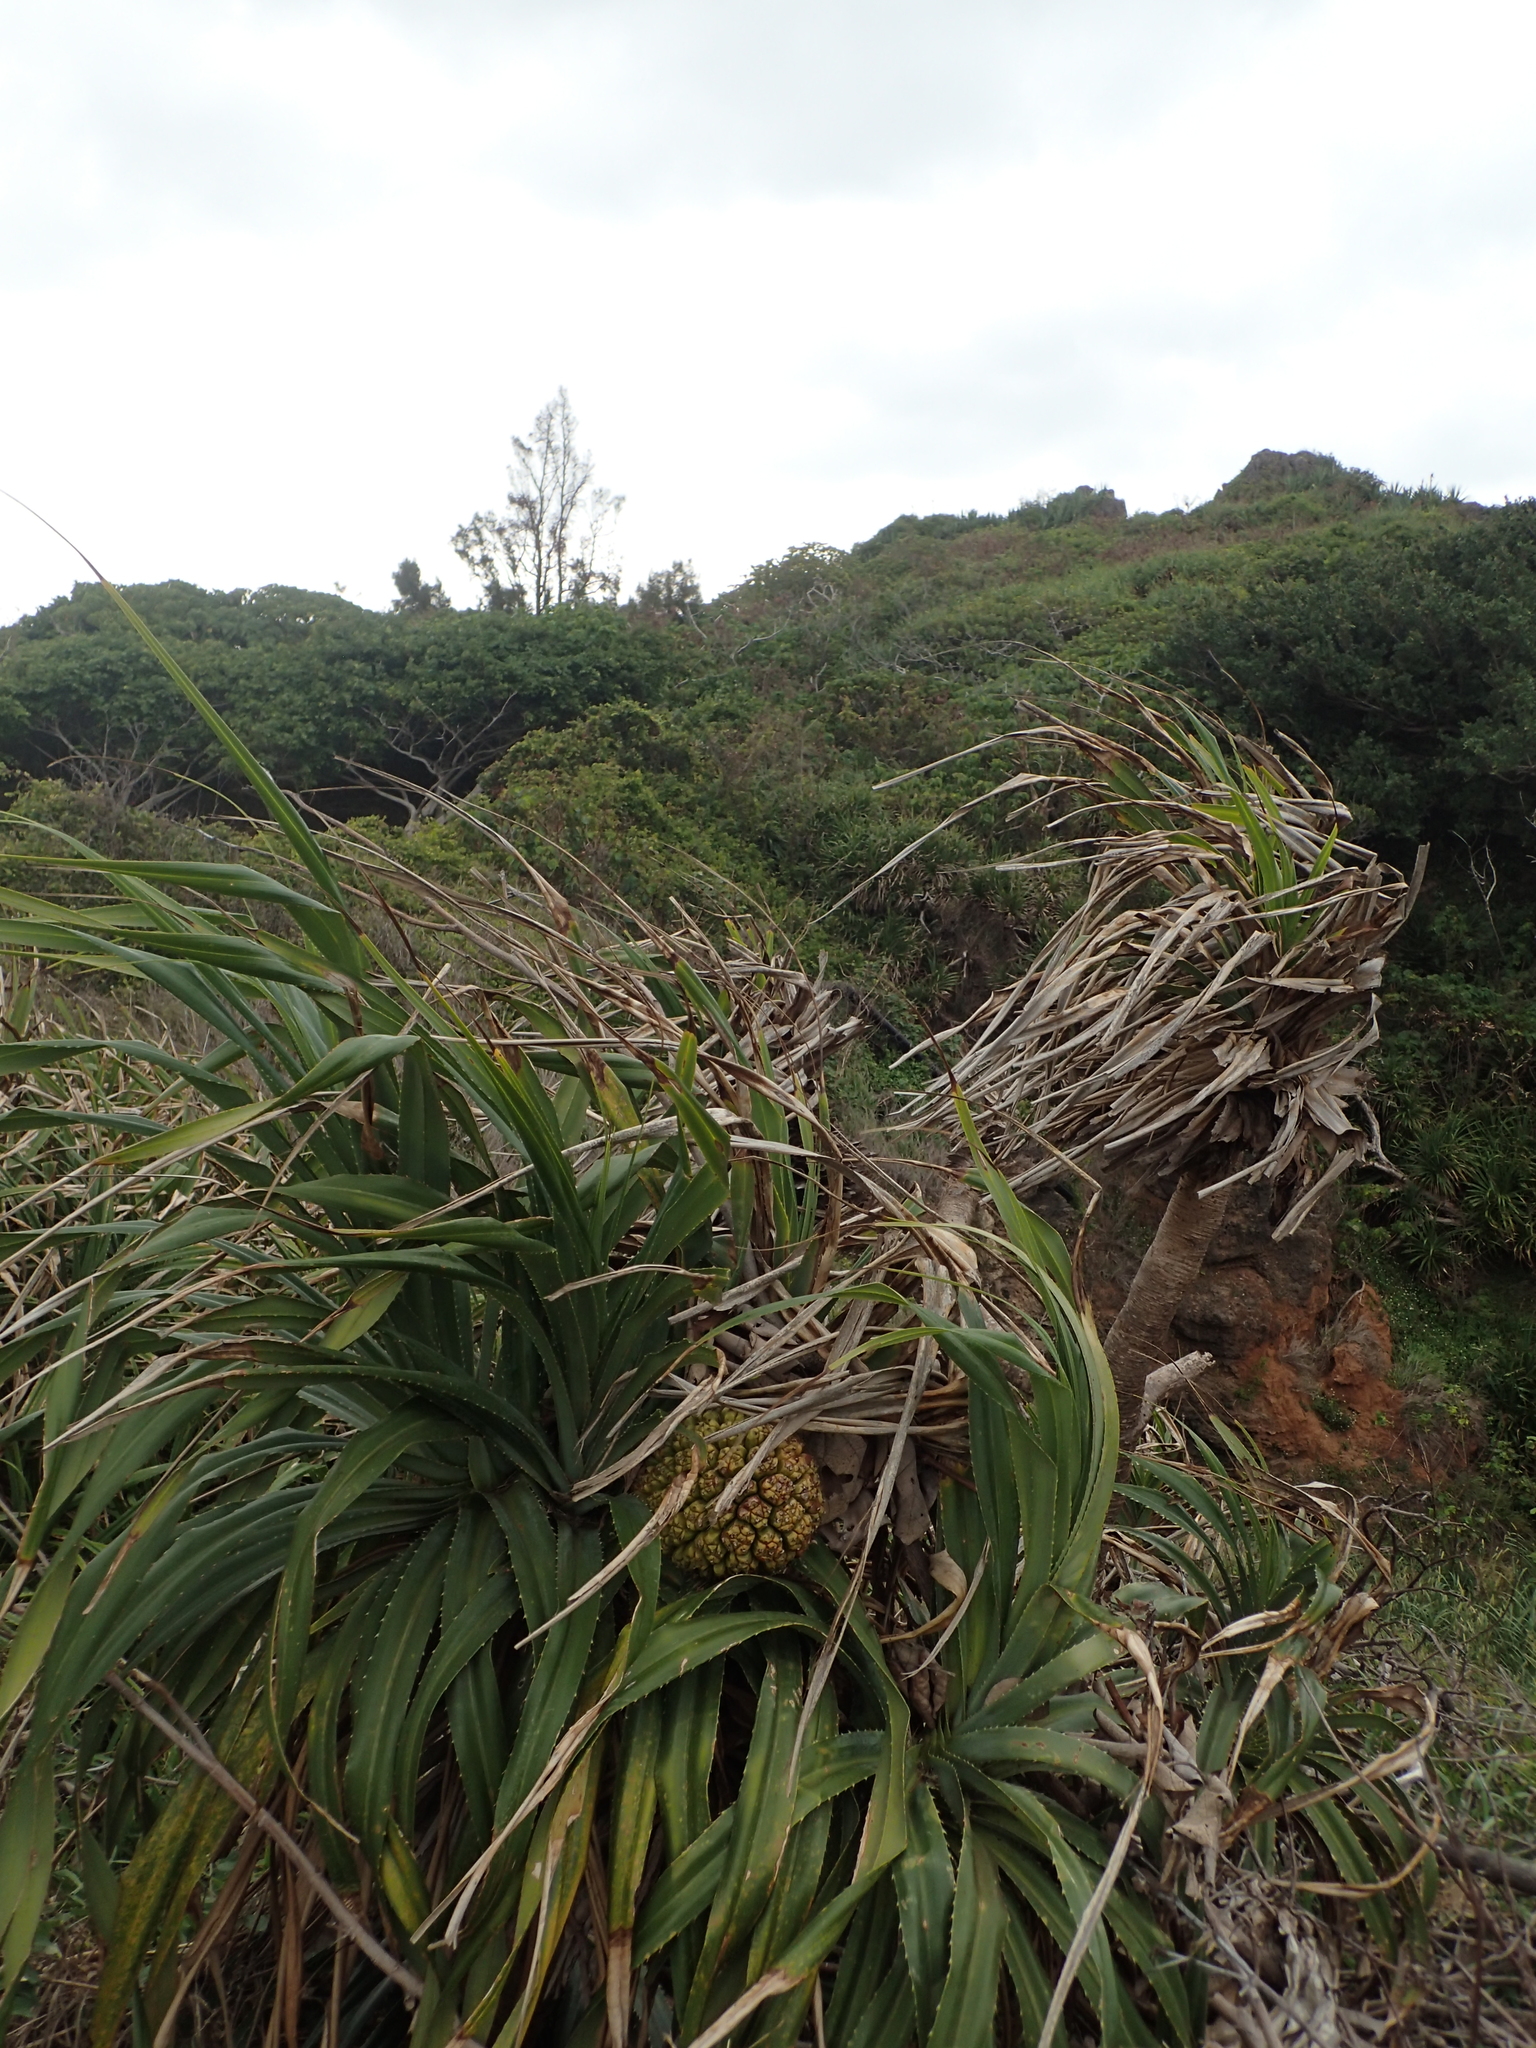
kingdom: Plantae
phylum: Tracheophyta
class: Liliopsida
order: Pandanales
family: Pandanaceae
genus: Pandanus
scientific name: Pandanus odorifer
